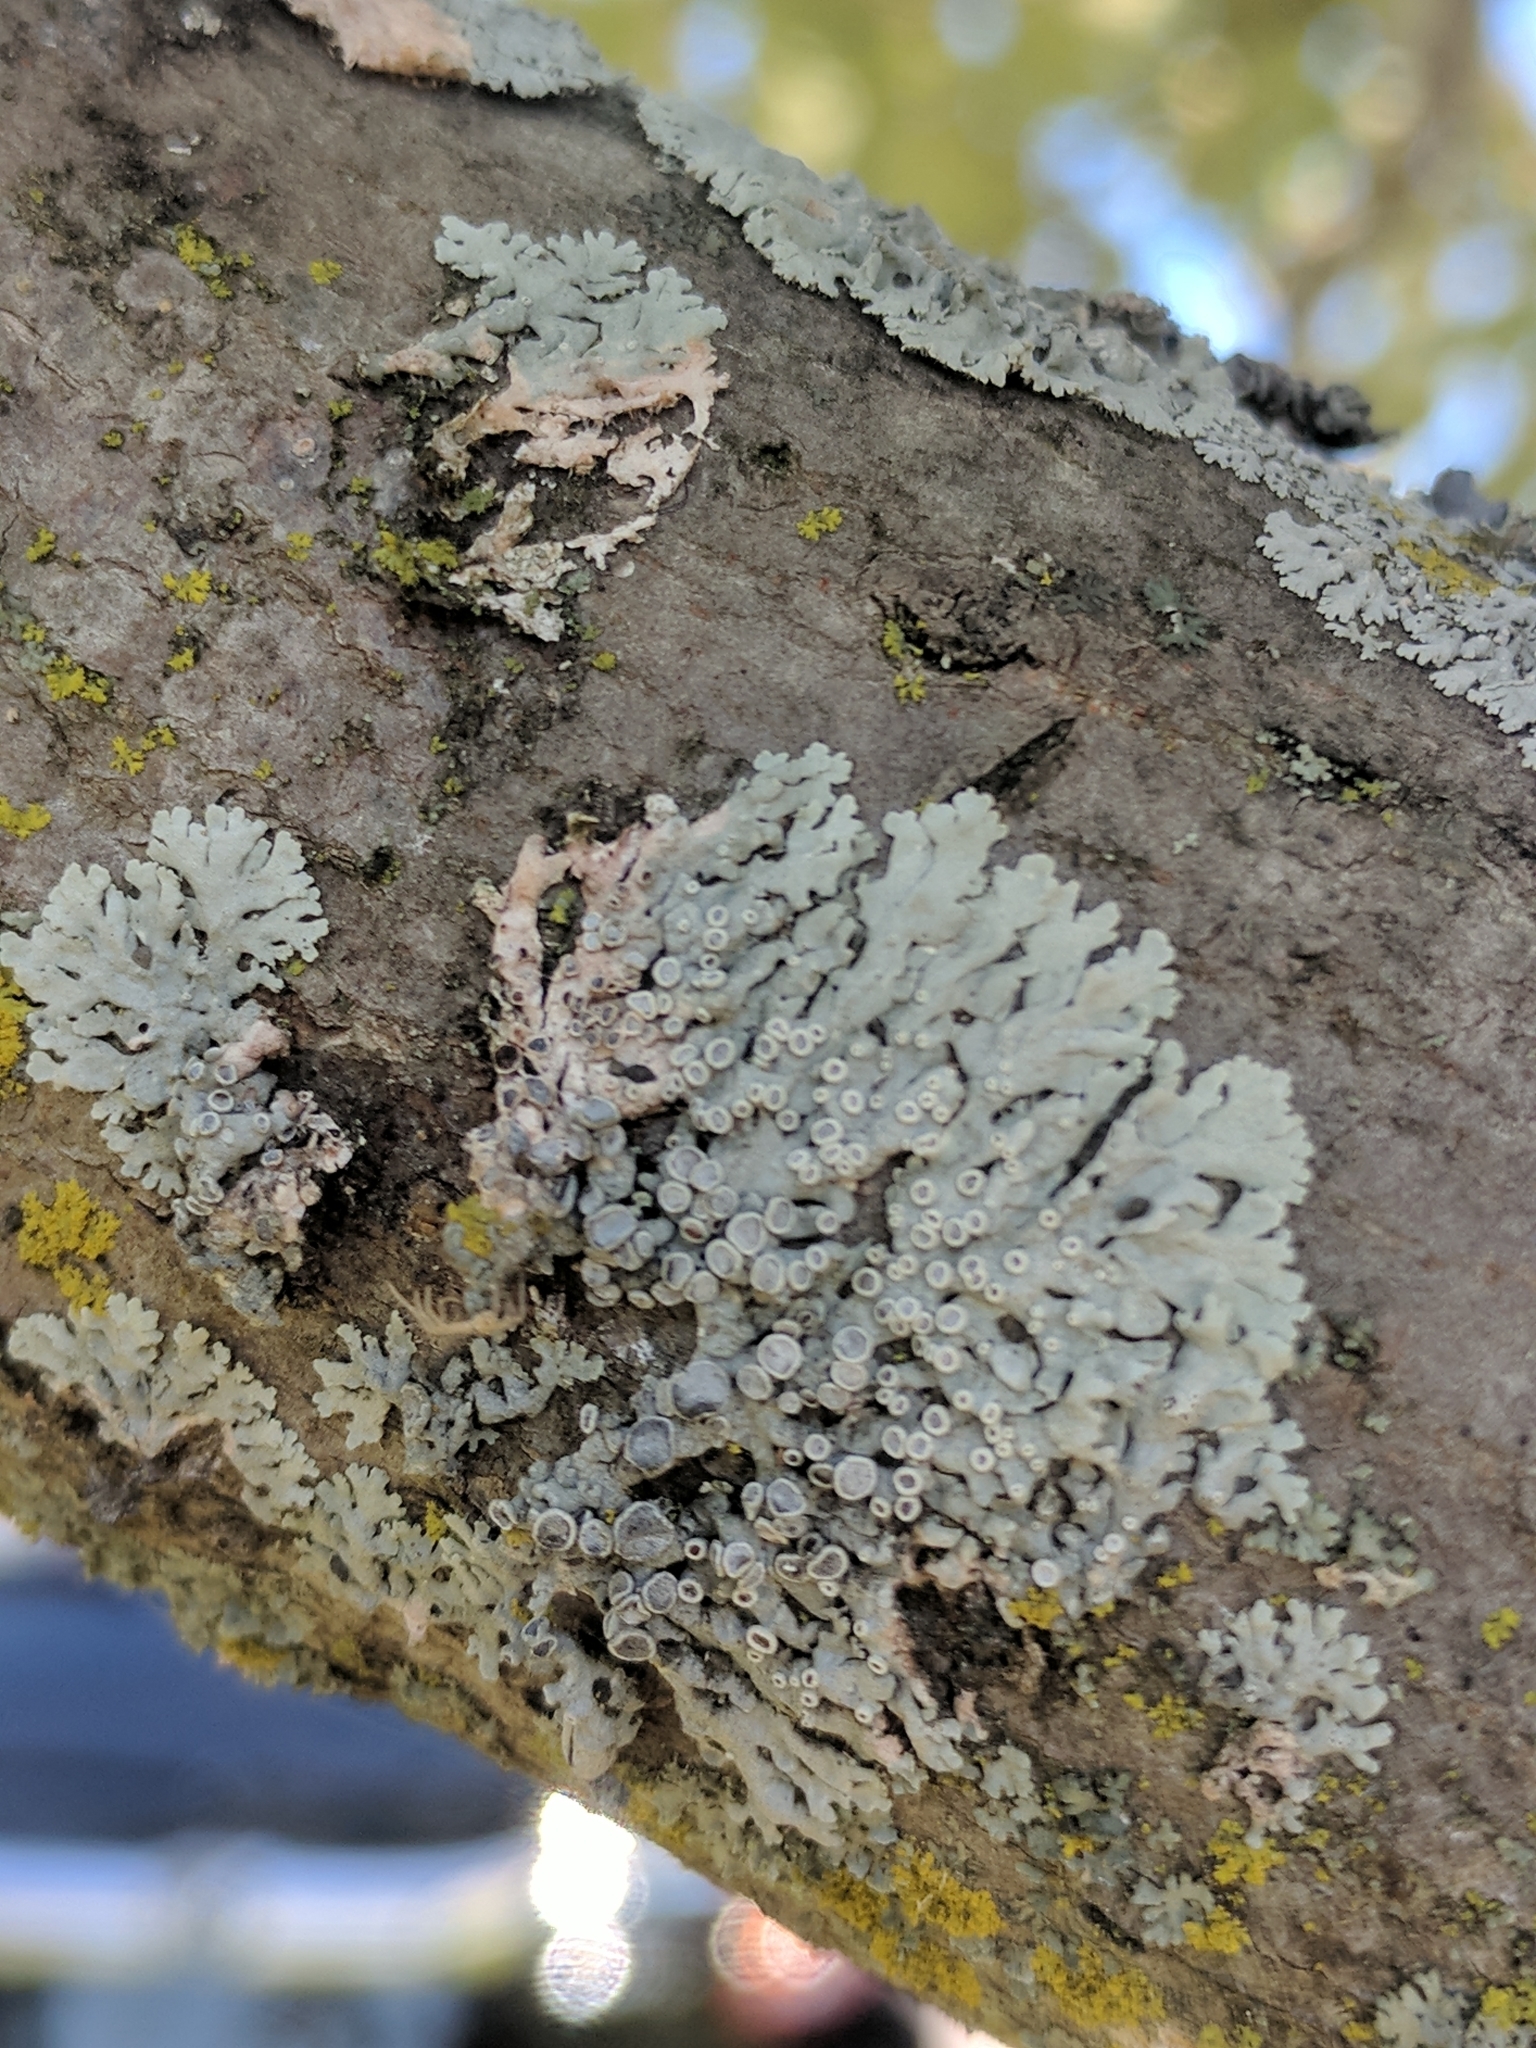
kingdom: Fungi
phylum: Ascomycota
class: Lecanoromycetes
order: Caliciales
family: Physciaceae
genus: Physcia
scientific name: Physcia stellaris
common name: Star rosette lichen
